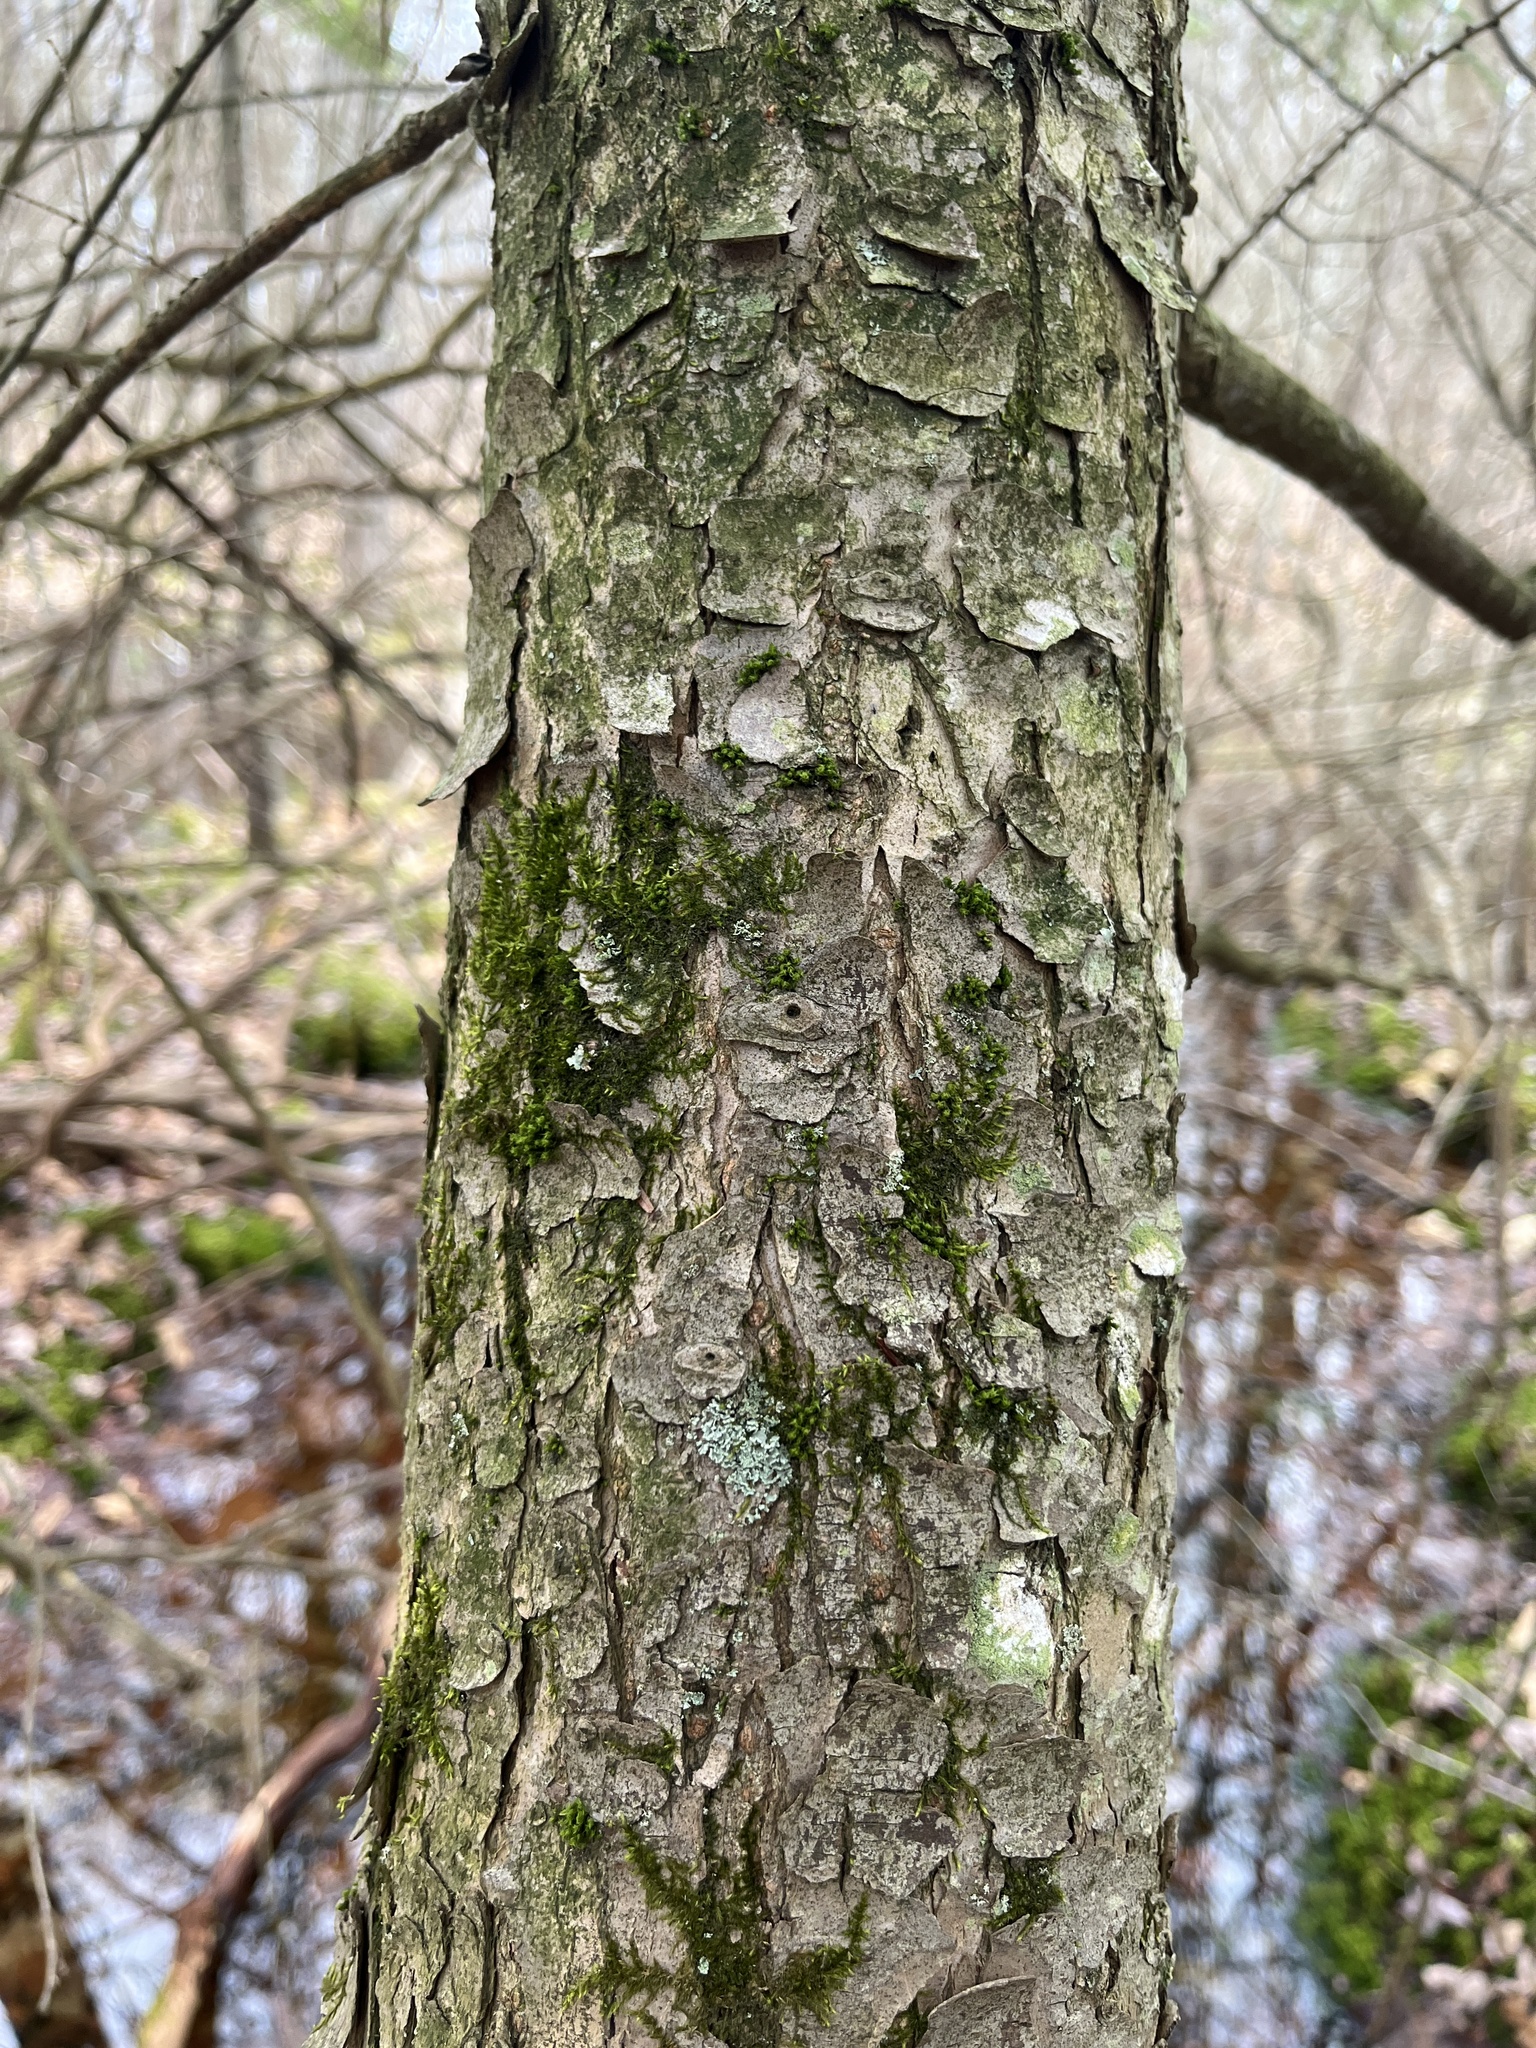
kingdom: Plantae
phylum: Tracheophyta
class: Pinopsida
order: Pinales
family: Pinaceae
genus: Tsuga
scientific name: Tsuga canadensis
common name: Eastern hemlock
